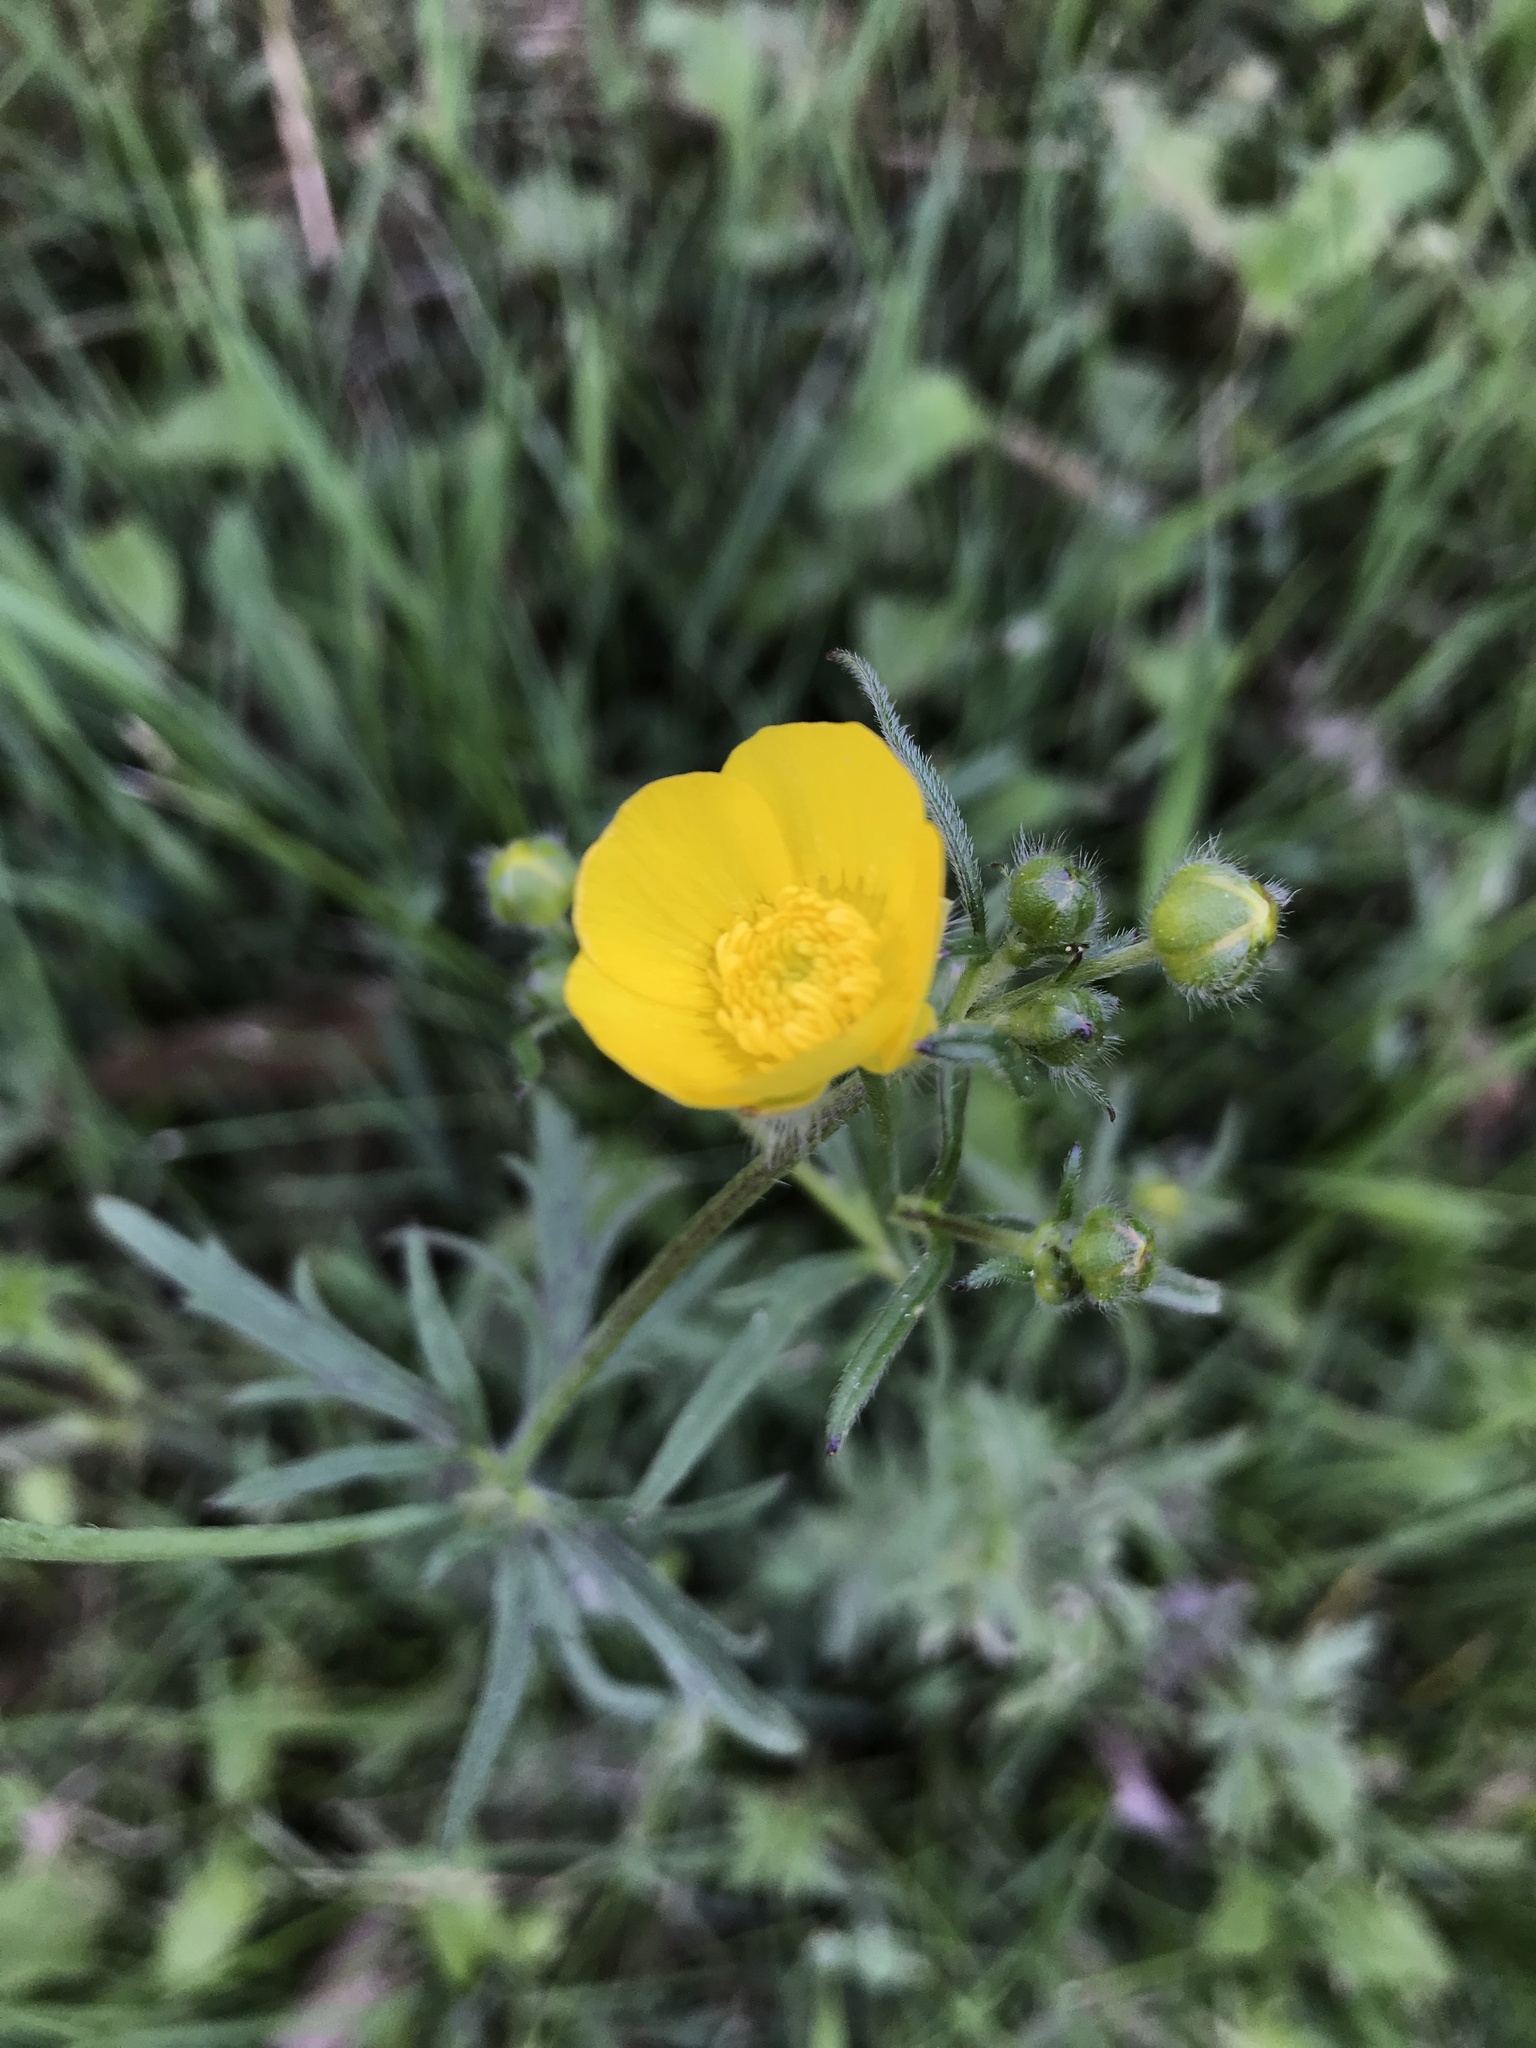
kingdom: Plantae
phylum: Tracheophyta
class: Magnoliopsida
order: Ranunculales
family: Ranunculaceae
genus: Ranunculus
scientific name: Ranunculus acris
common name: Meadow buttercup
